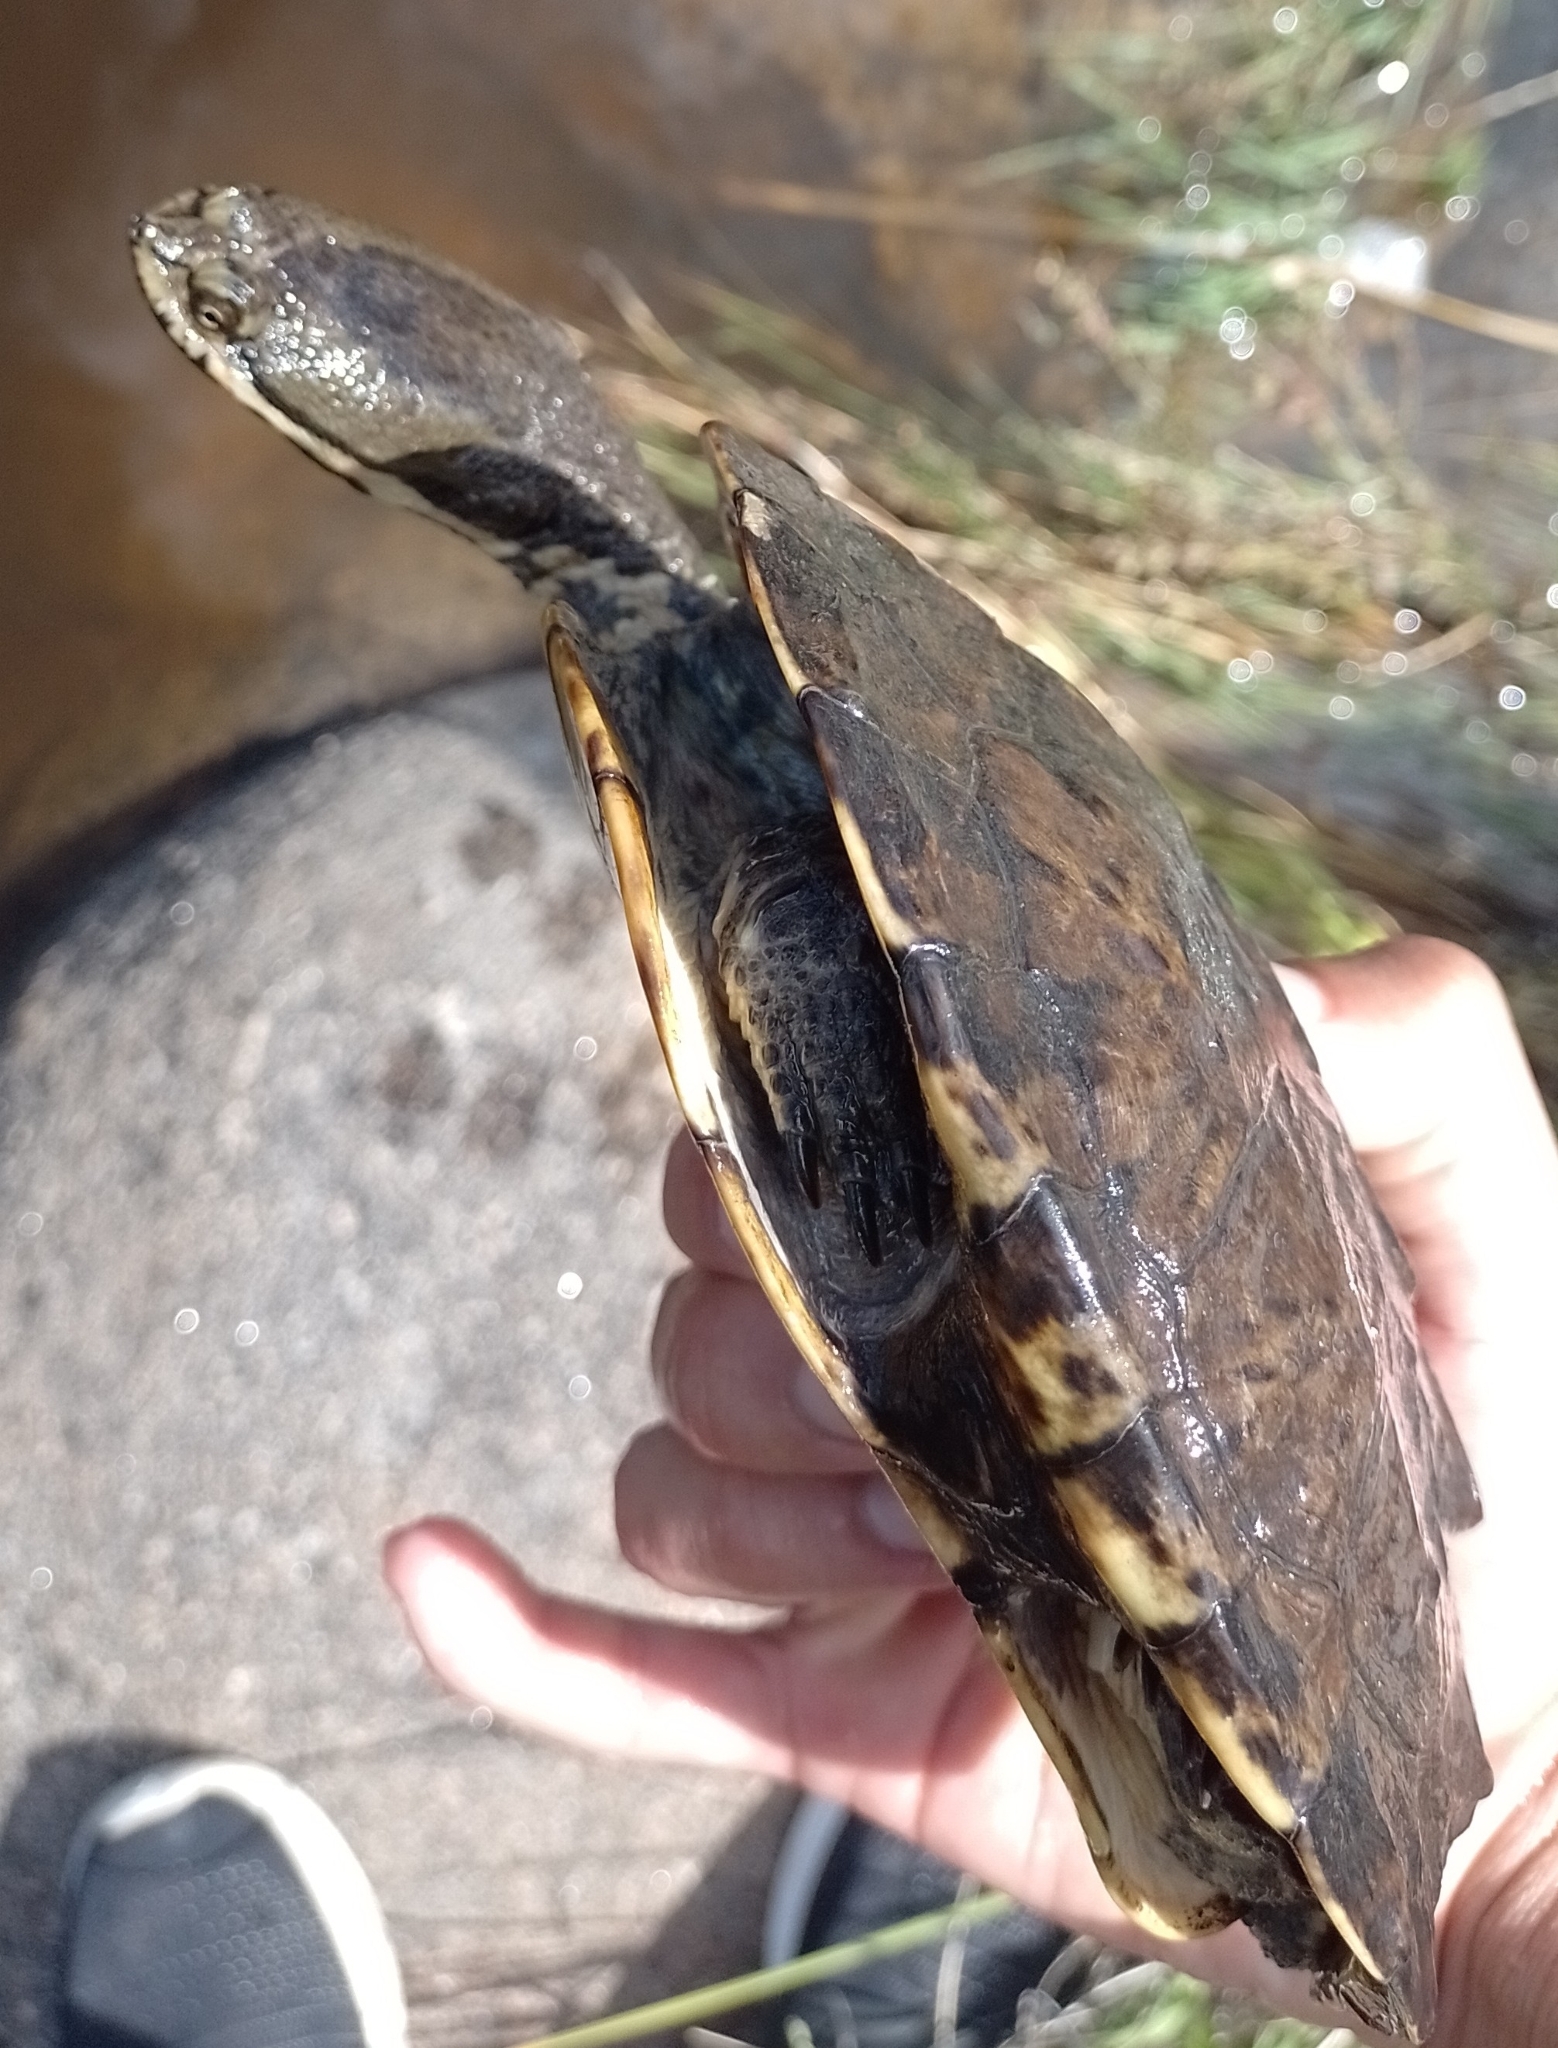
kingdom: Animalia
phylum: Chordata
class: Testudines
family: Chelidae
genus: Hydromedusa
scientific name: Hydromedusa tectifera
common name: Argentine snake-necked turtle
